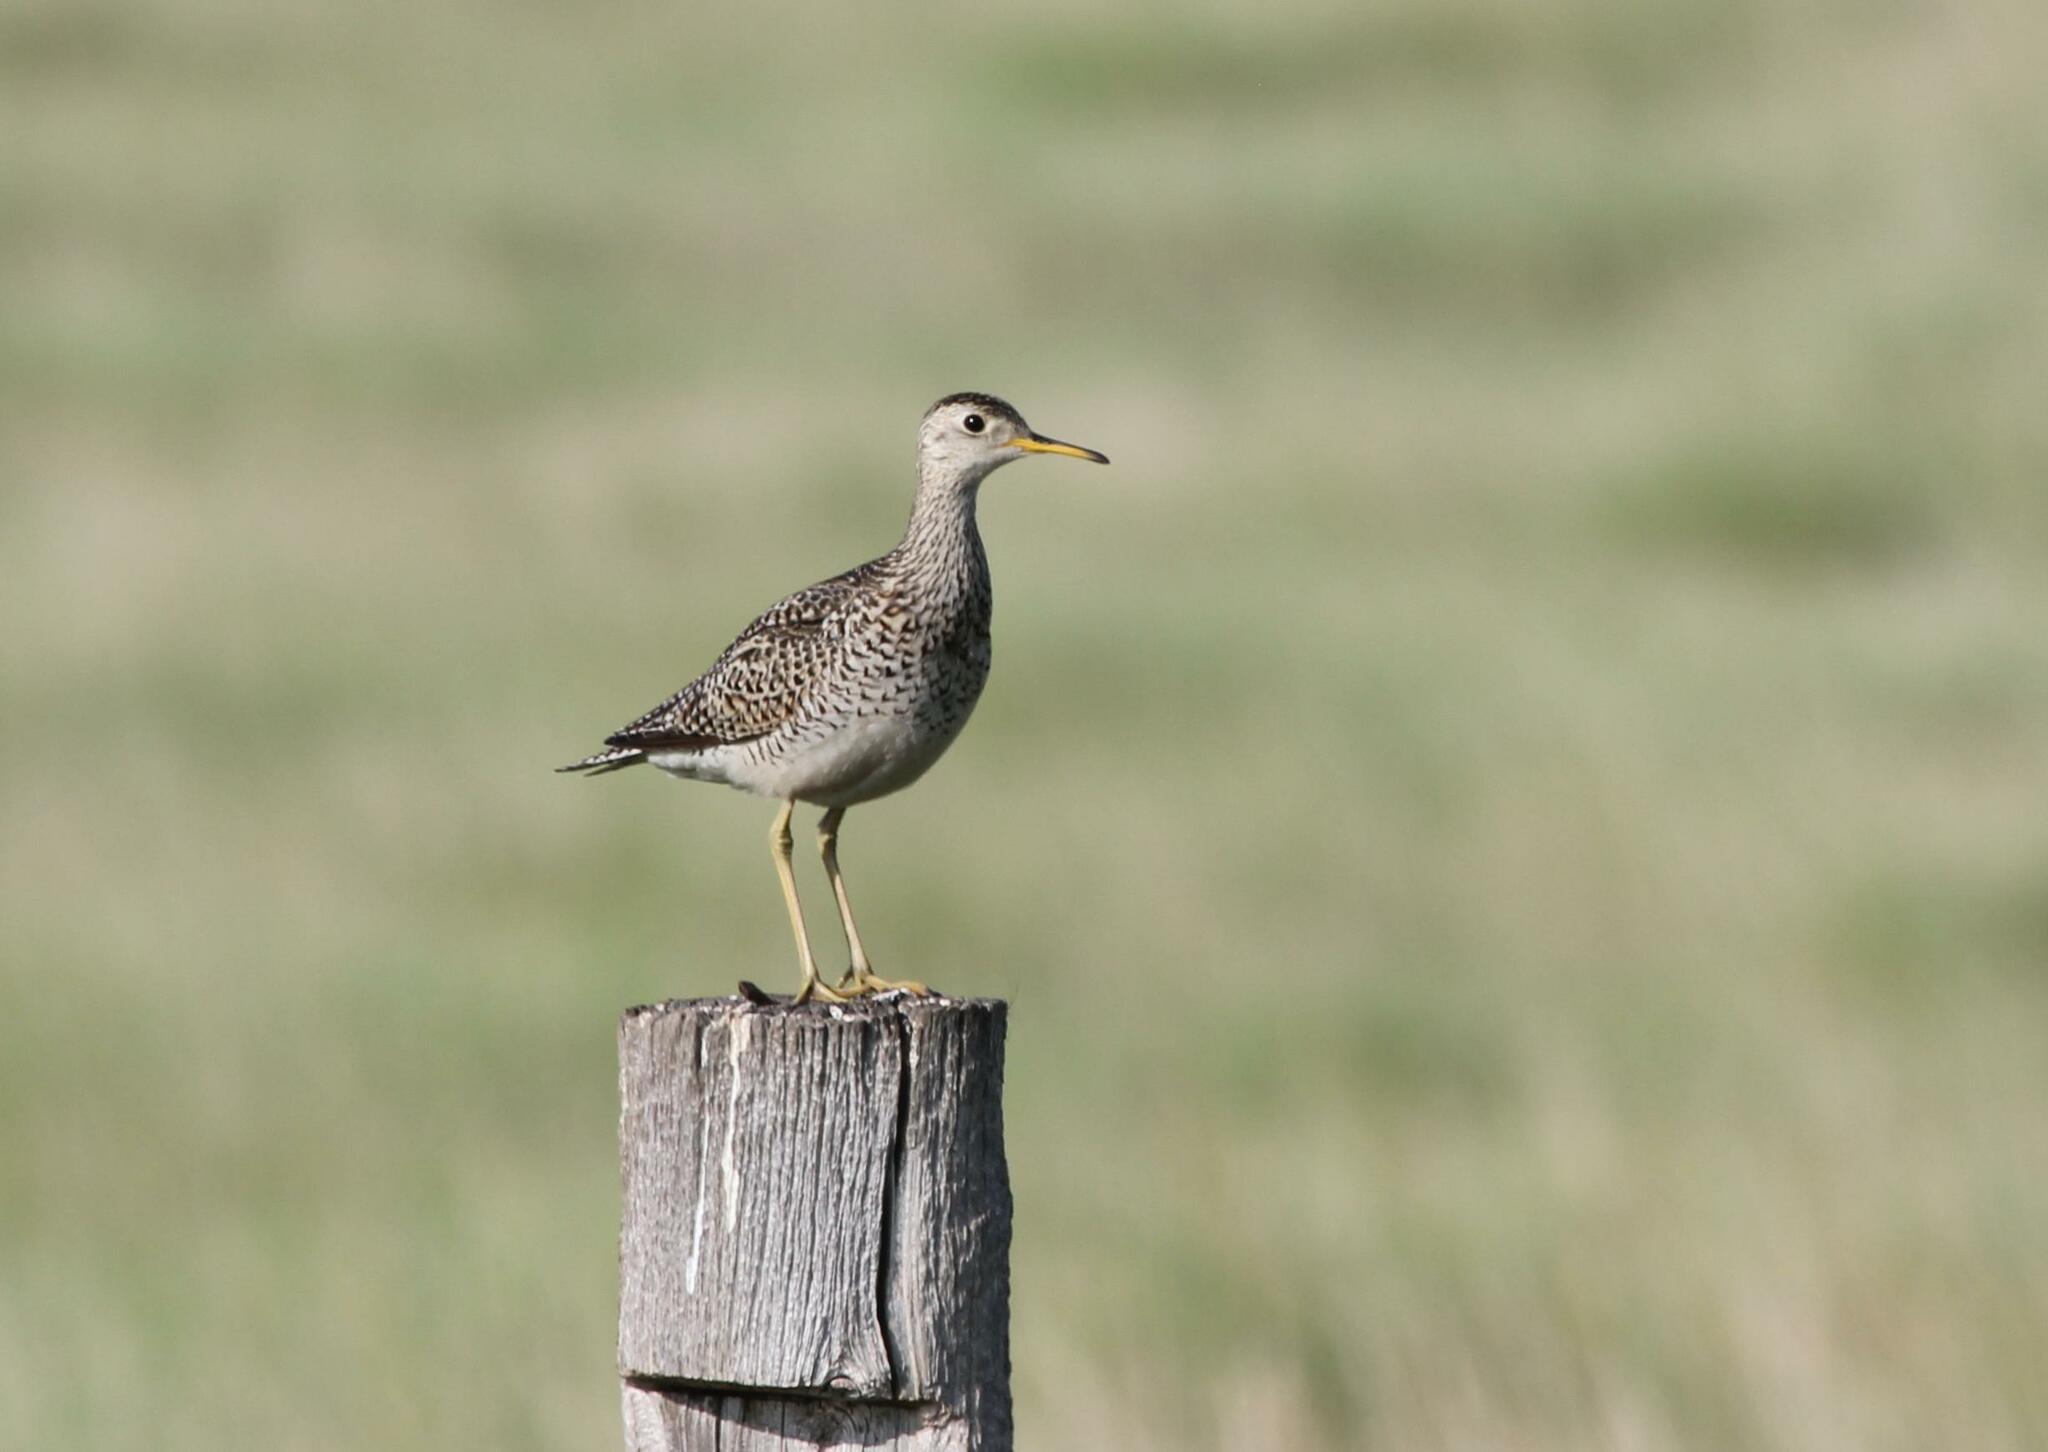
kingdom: Animalia
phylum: Chordata
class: Aves
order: Charadriiformes
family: Scolopacidae
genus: Bartramia
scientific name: Bartramia longicauda
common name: Upland sandpiper
